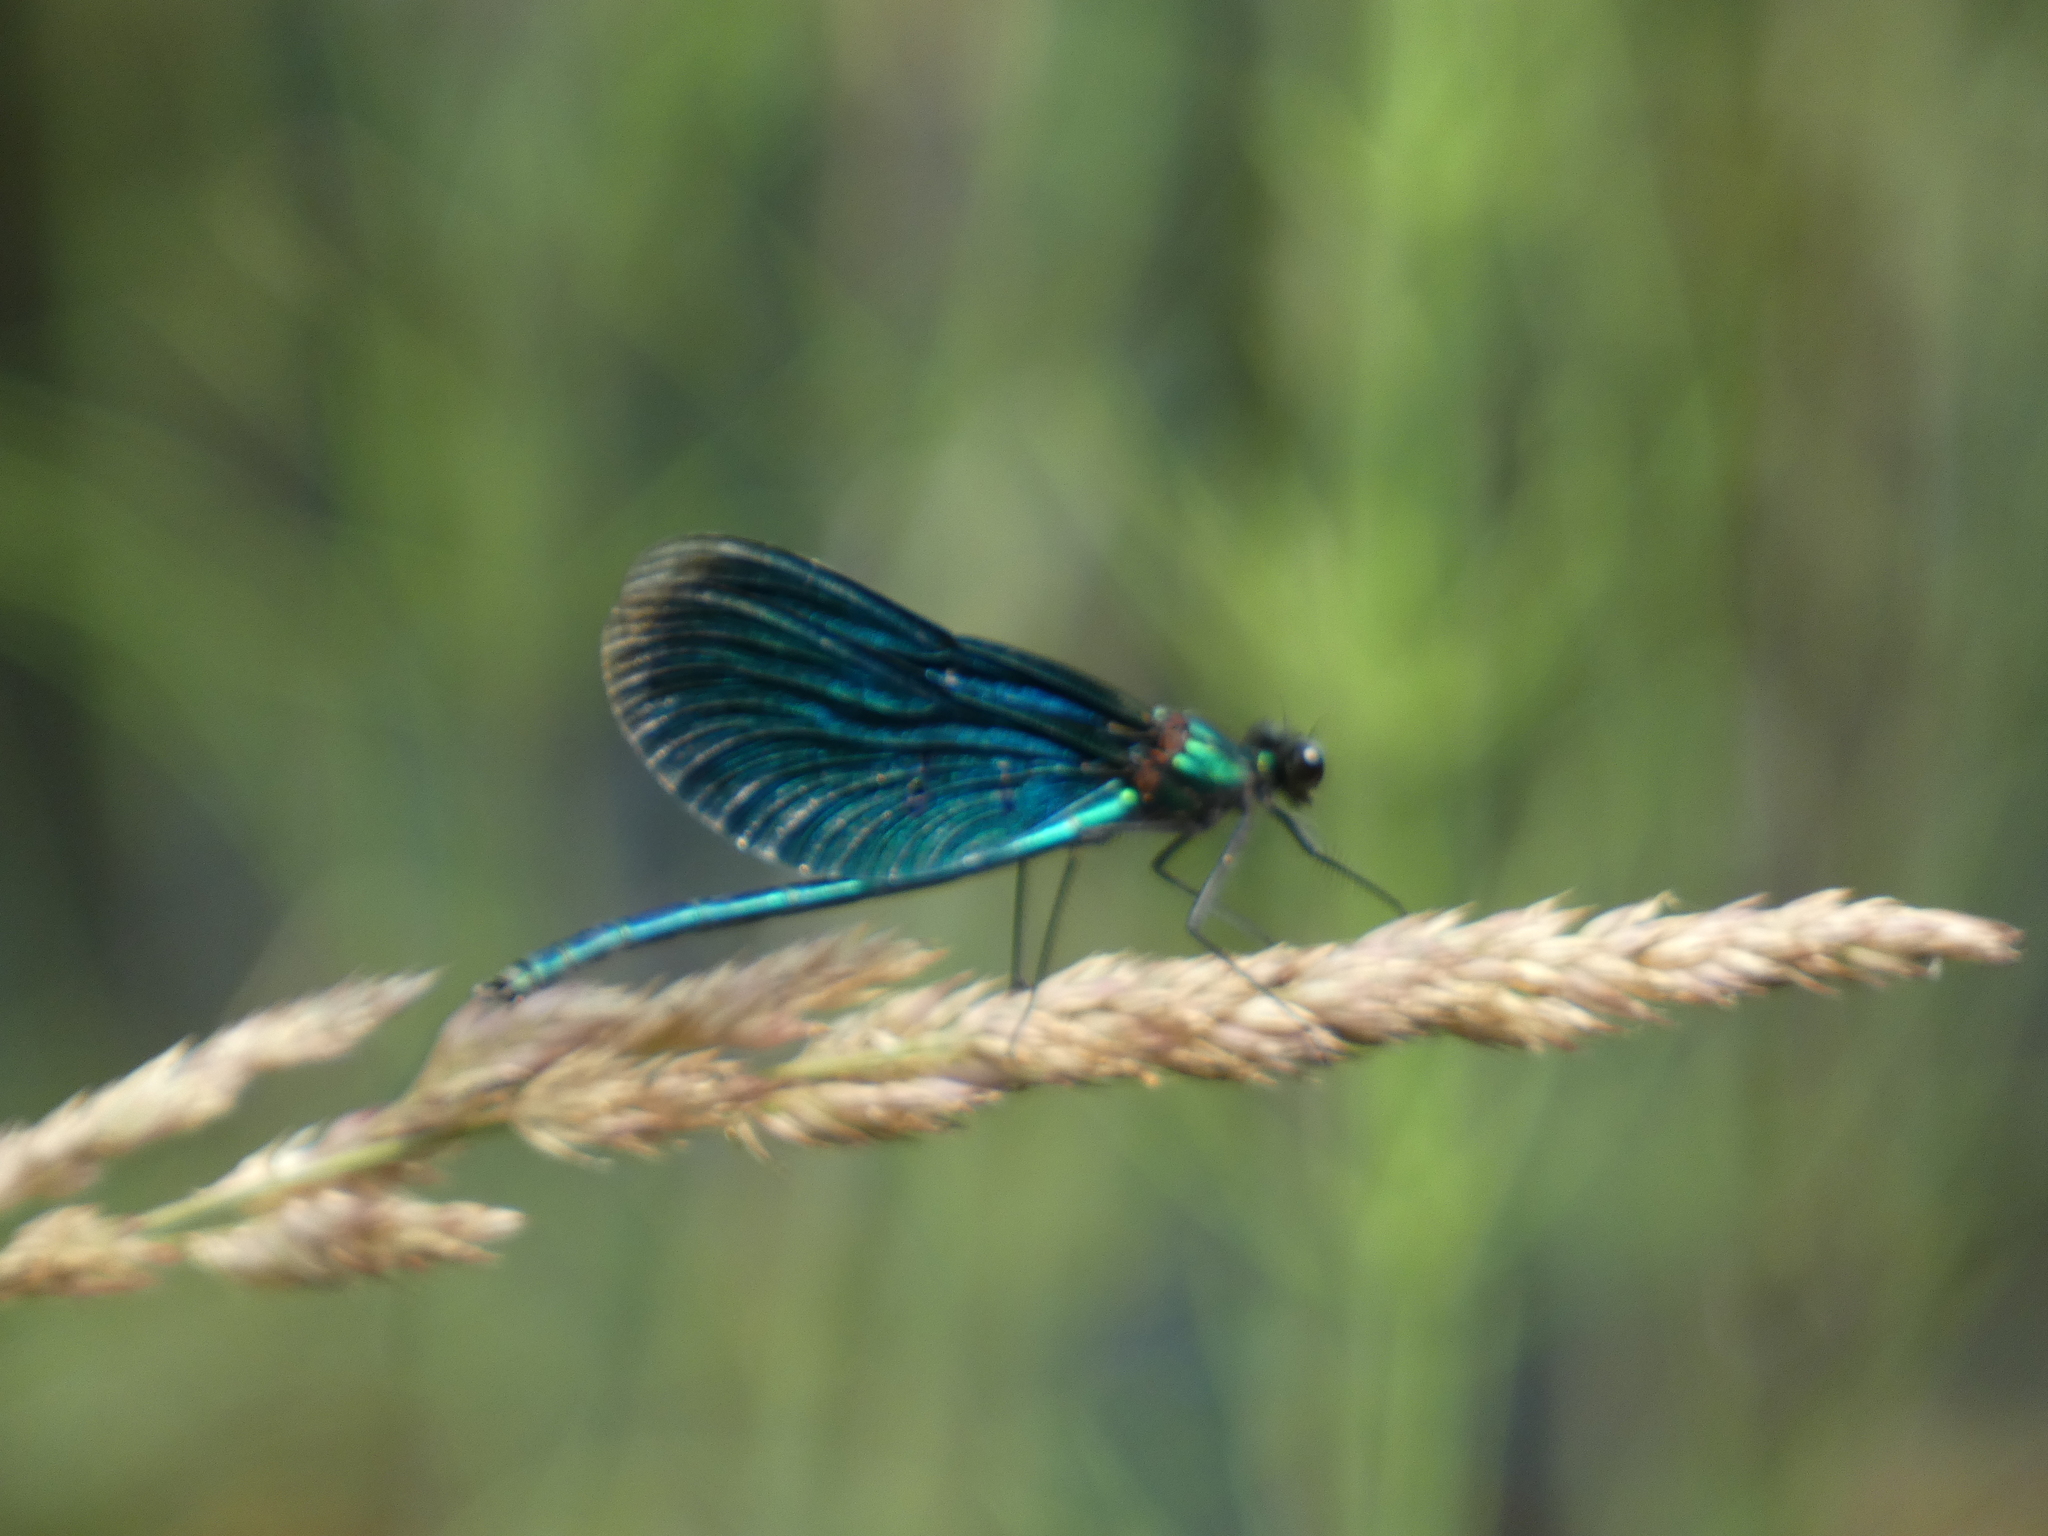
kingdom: Animalia
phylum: Arthropoda
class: Insecta
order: Odonata
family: Calopterygidae
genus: Calopteryx
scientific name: Calopteryx virgo
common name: Beautiful demoiselle
